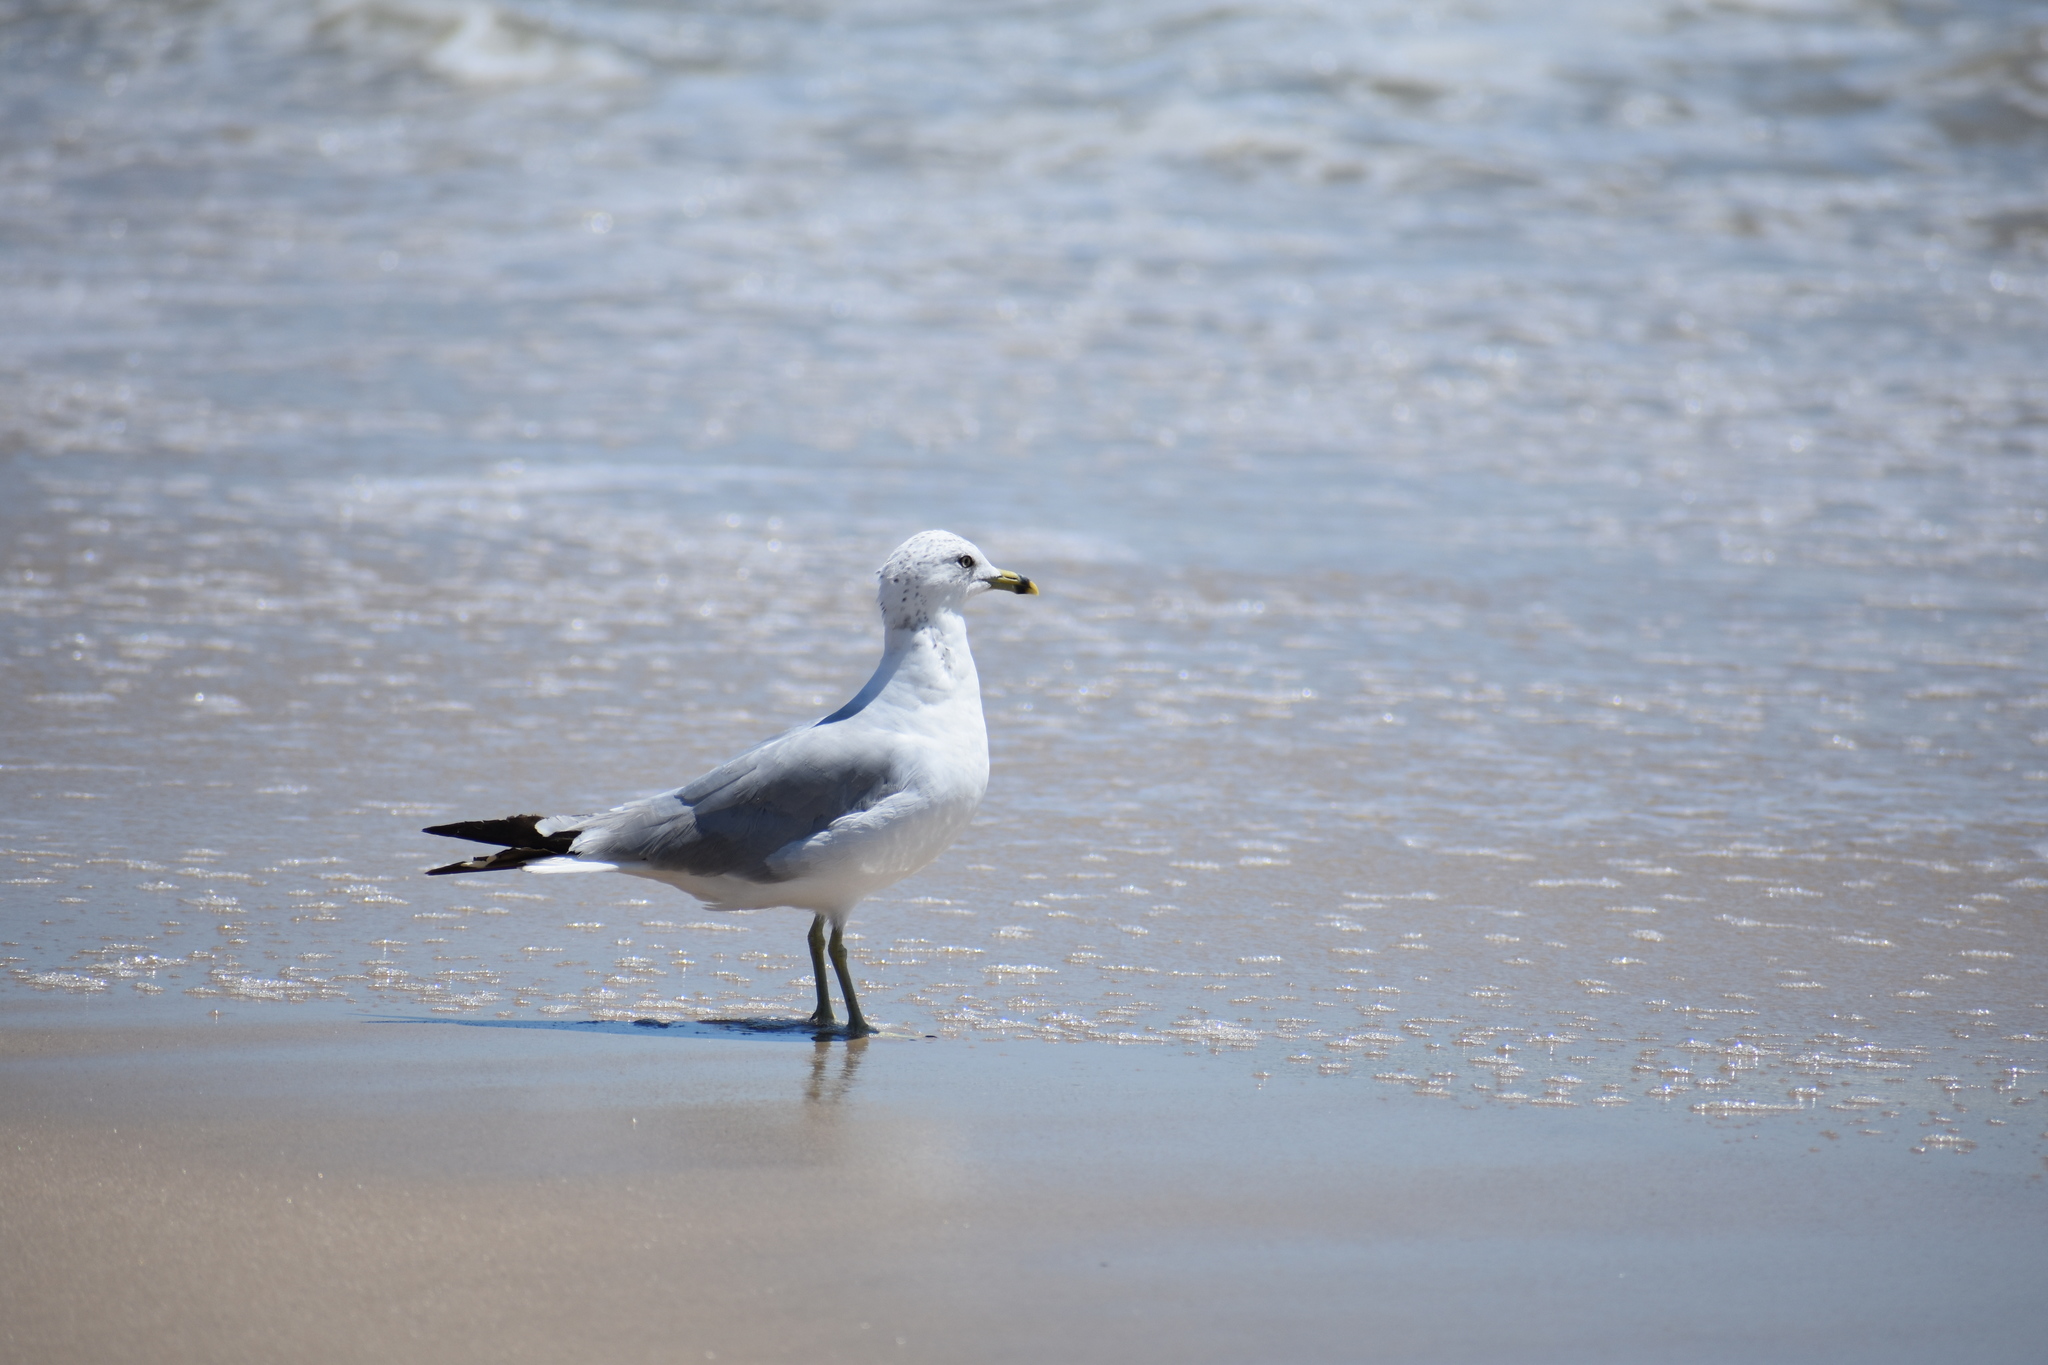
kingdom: Animalia
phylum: Chordata
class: Aves
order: Charadriiformes
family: Laridae
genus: Larus
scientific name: Larus delawarensis
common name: Ring-billed gull
